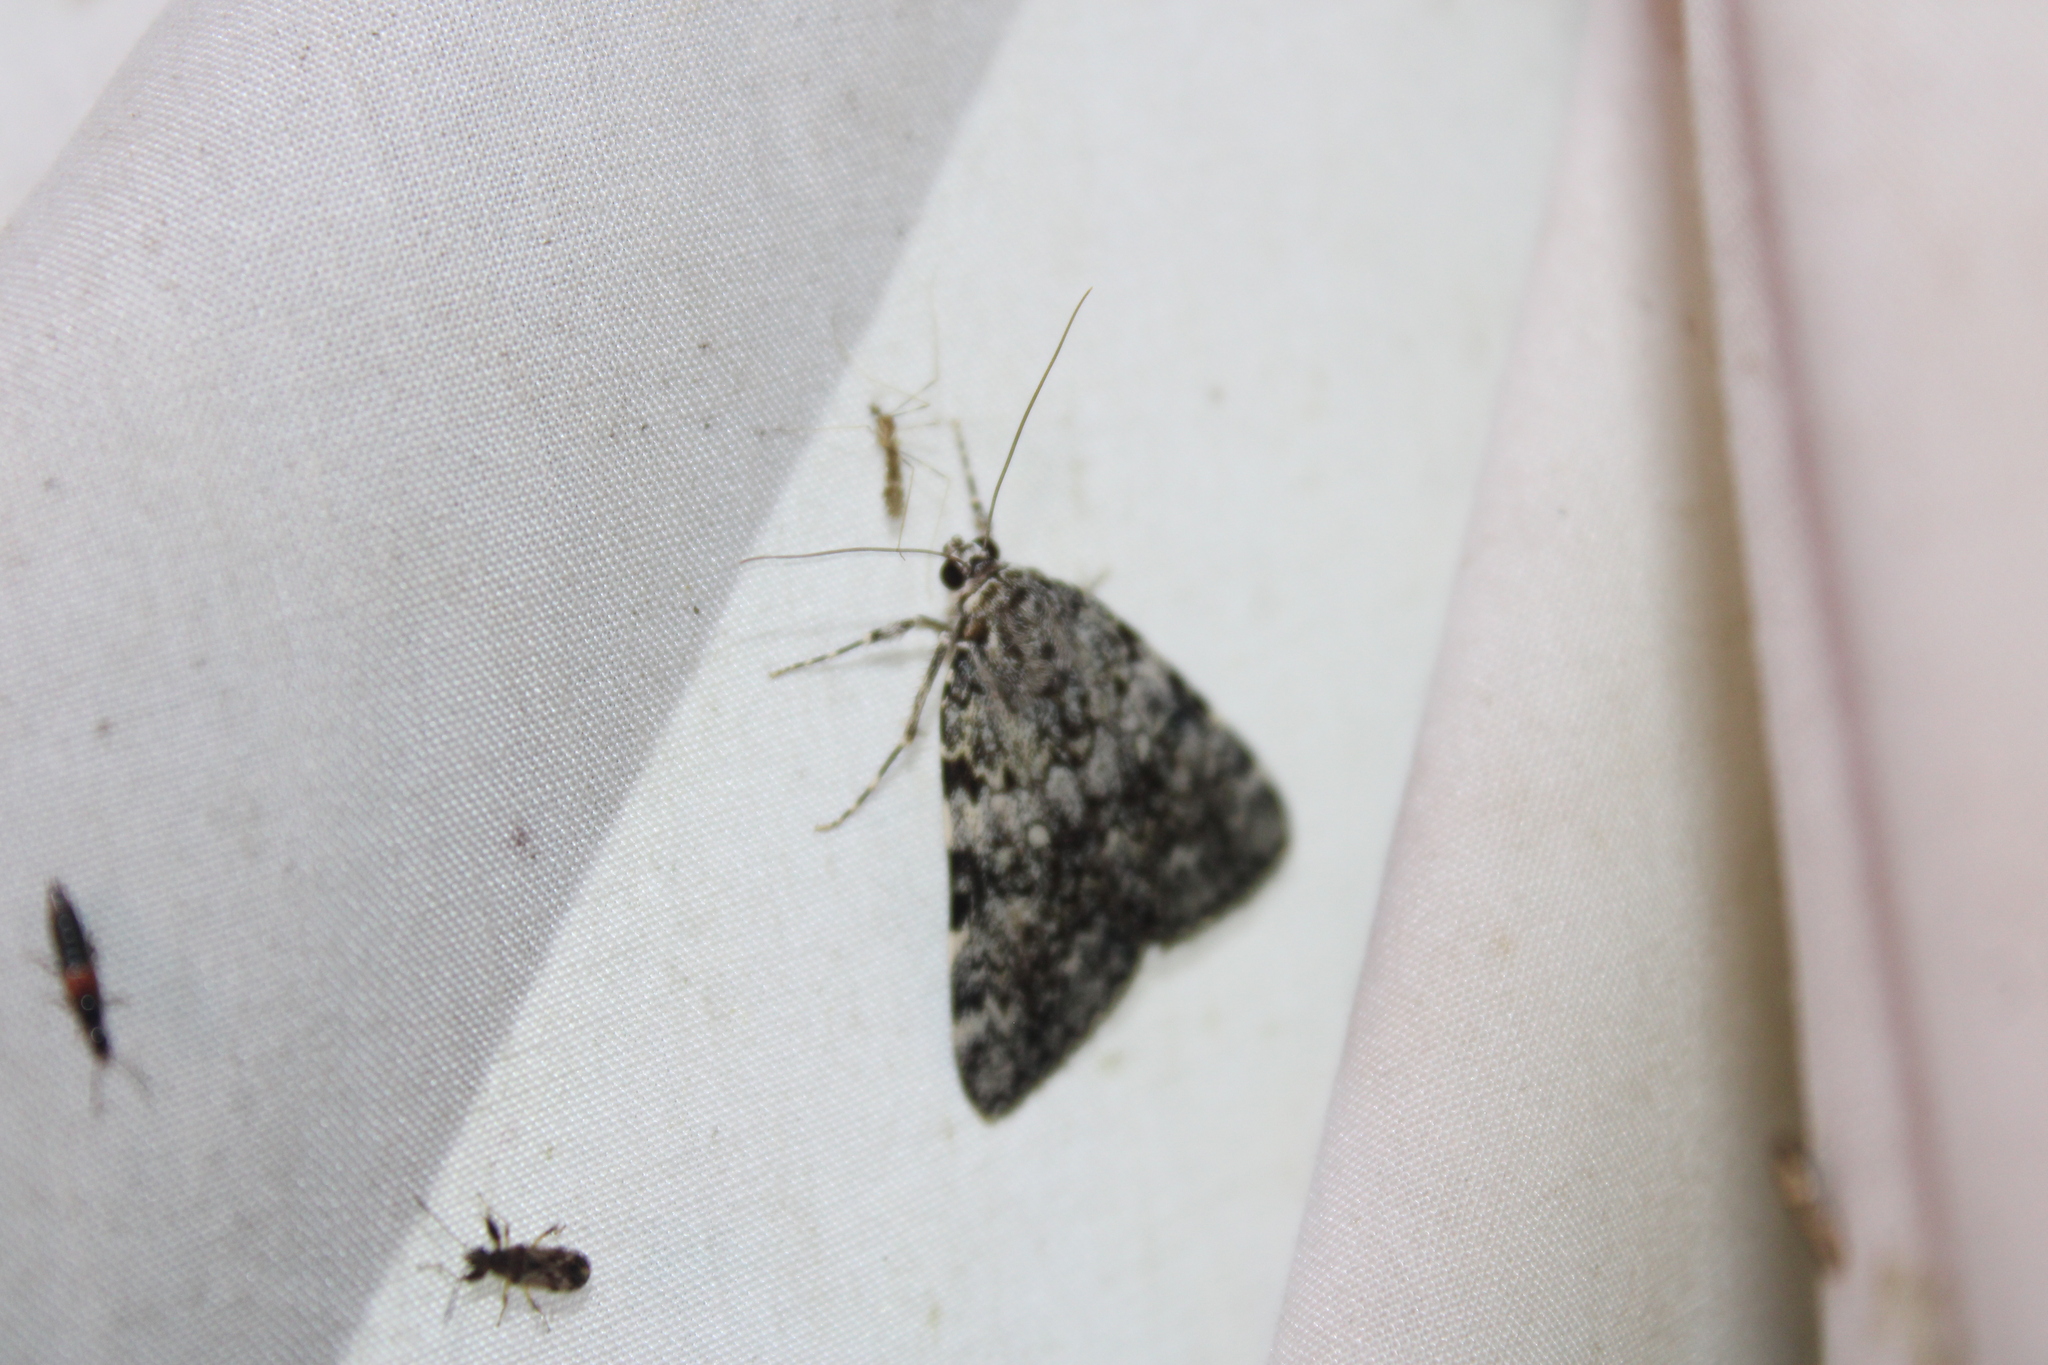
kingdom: Animalia
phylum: Arthropoda
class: Insecta
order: Lepidoptera
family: Erebidae
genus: Catocala
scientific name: Catocala lineella
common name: Little lined underwing
